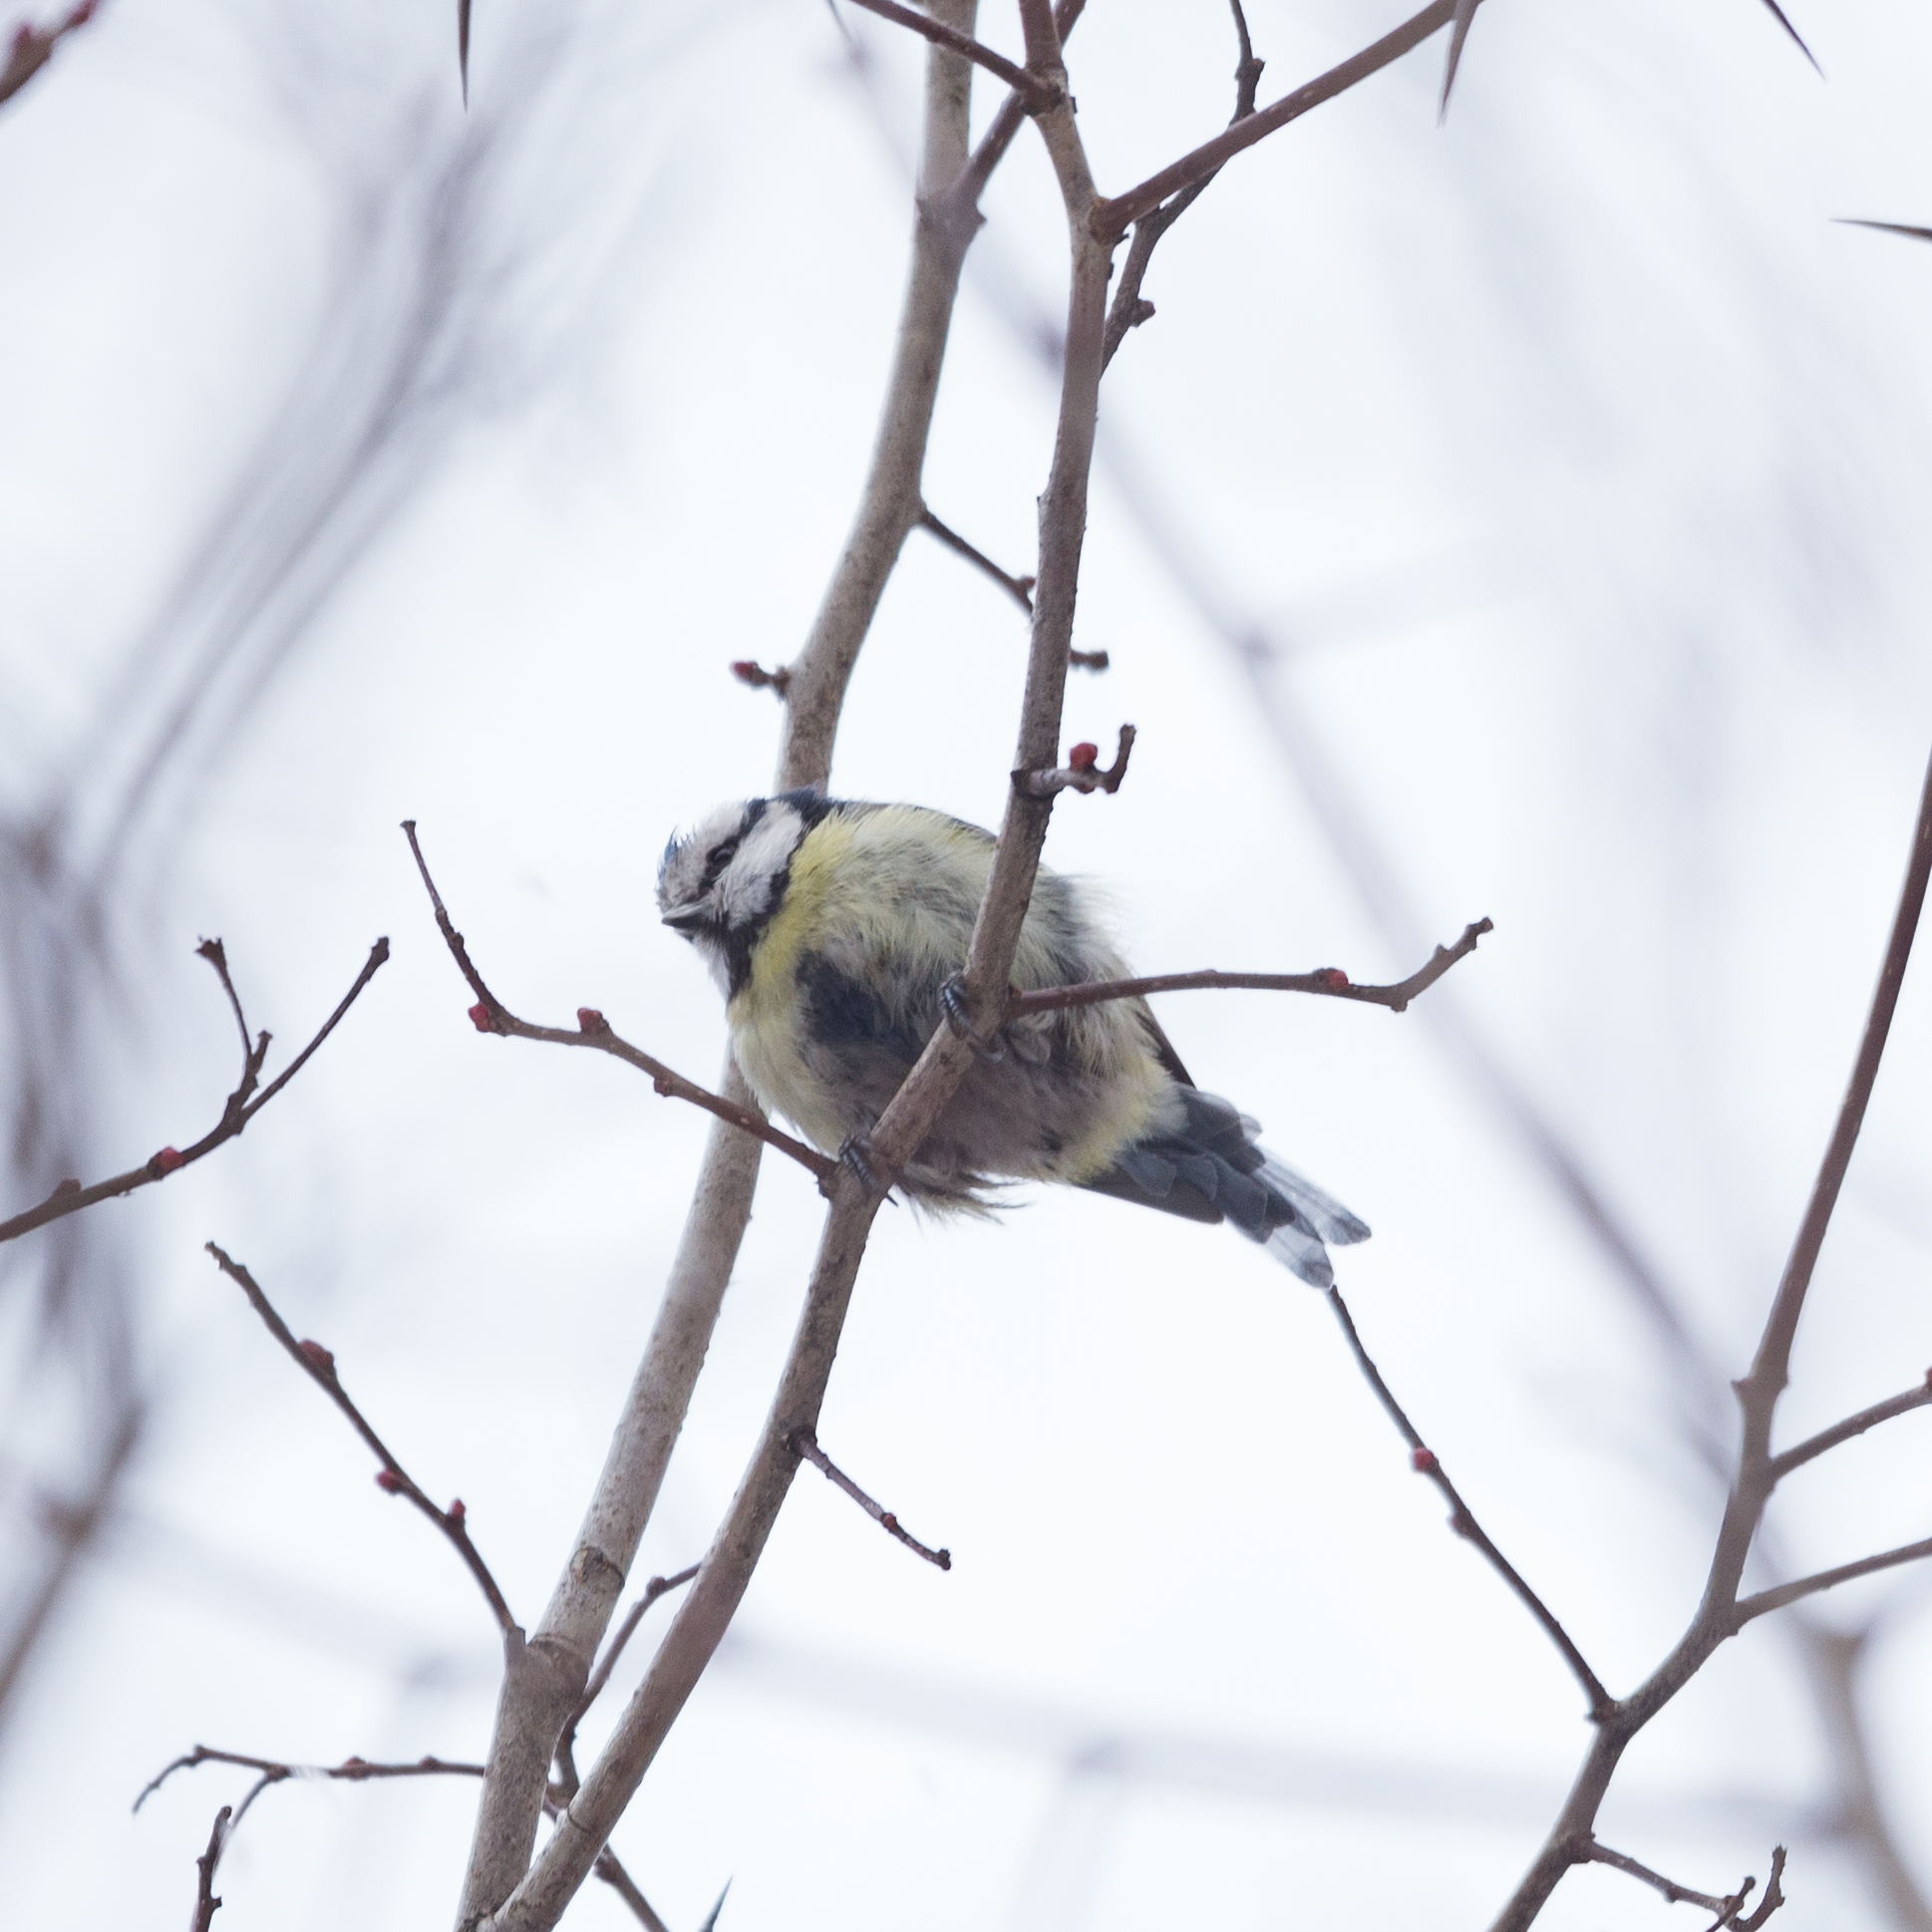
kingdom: Animalia
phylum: Chordata
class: Aves
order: Passeriformes
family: Paridae
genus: Cyanistes
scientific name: Cyanistes caeruleus
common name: Eurasian blue tit
